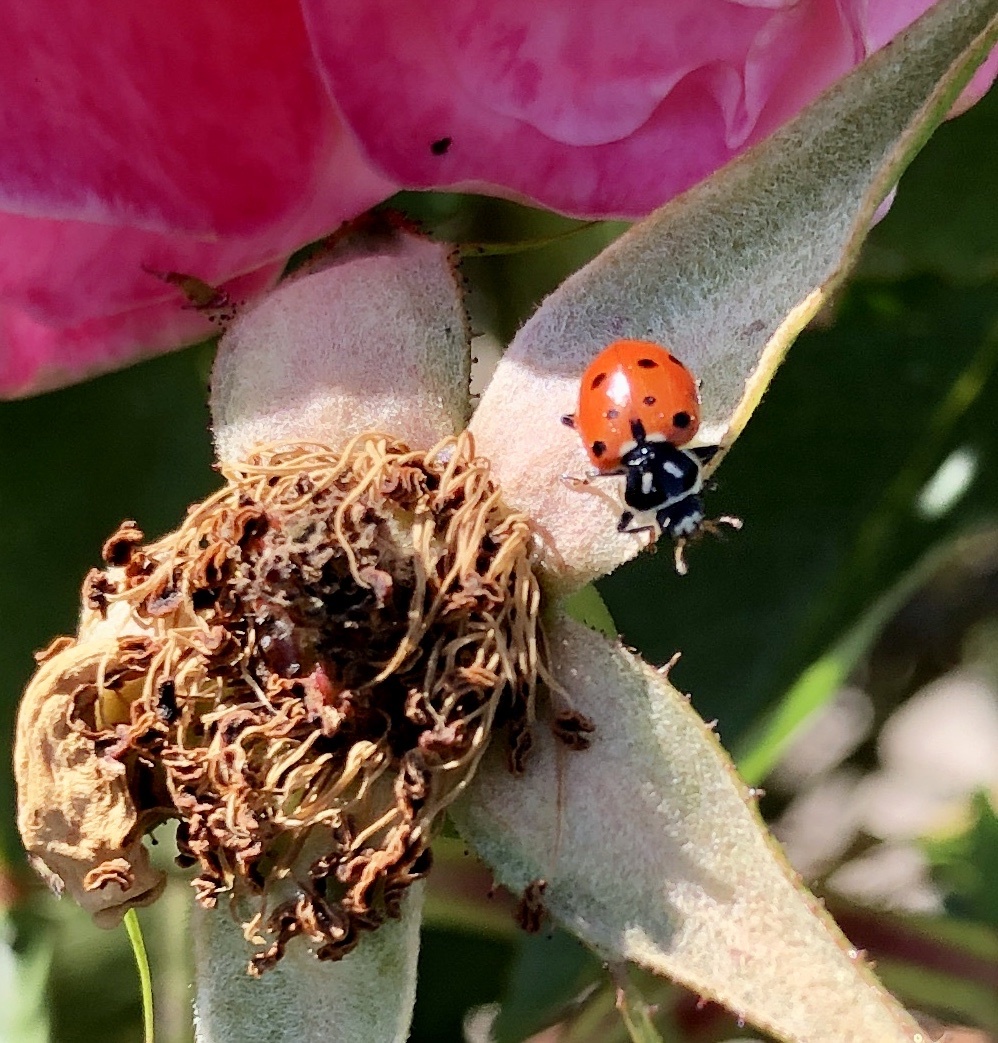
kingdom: Animalia
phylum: Arthropoda
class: Insecta
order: Coleoptera
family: Coccinellidae
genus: Hippodamia
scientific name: Hippodamia convergens
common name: Convergent lady beetle
